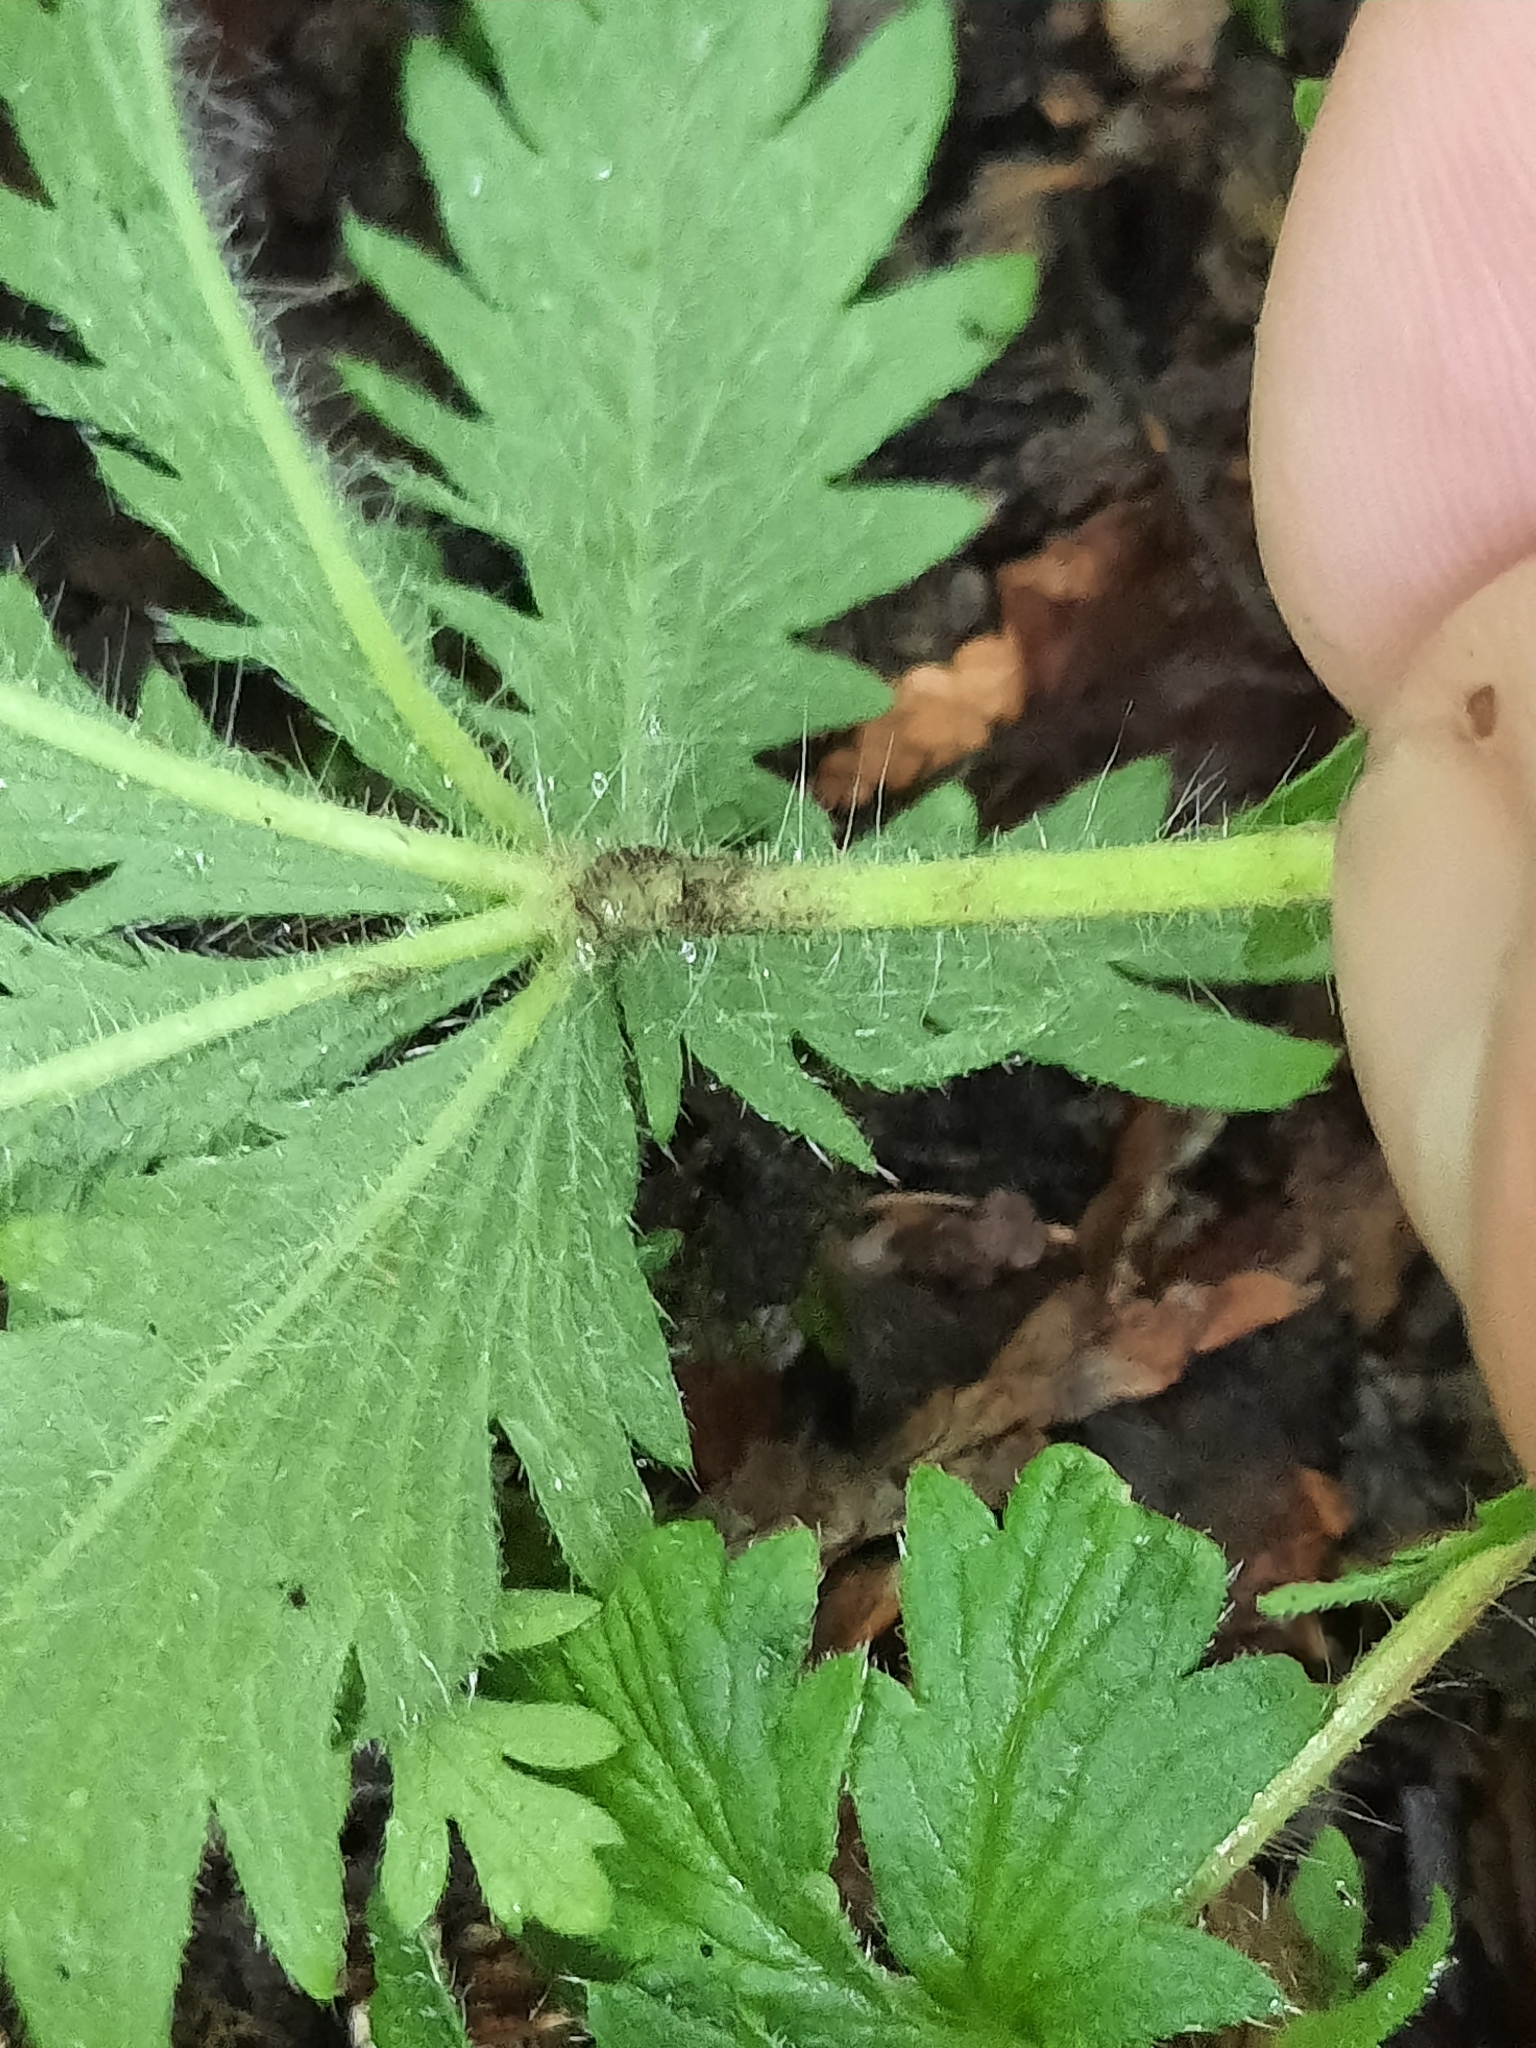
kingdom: Plantae
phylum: Tracheophyta
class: Magnoliopsida
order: Rosales
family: Rosaceae
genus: Potentilla
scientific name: Potentilla recta
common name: Sulphur cinquefoil
